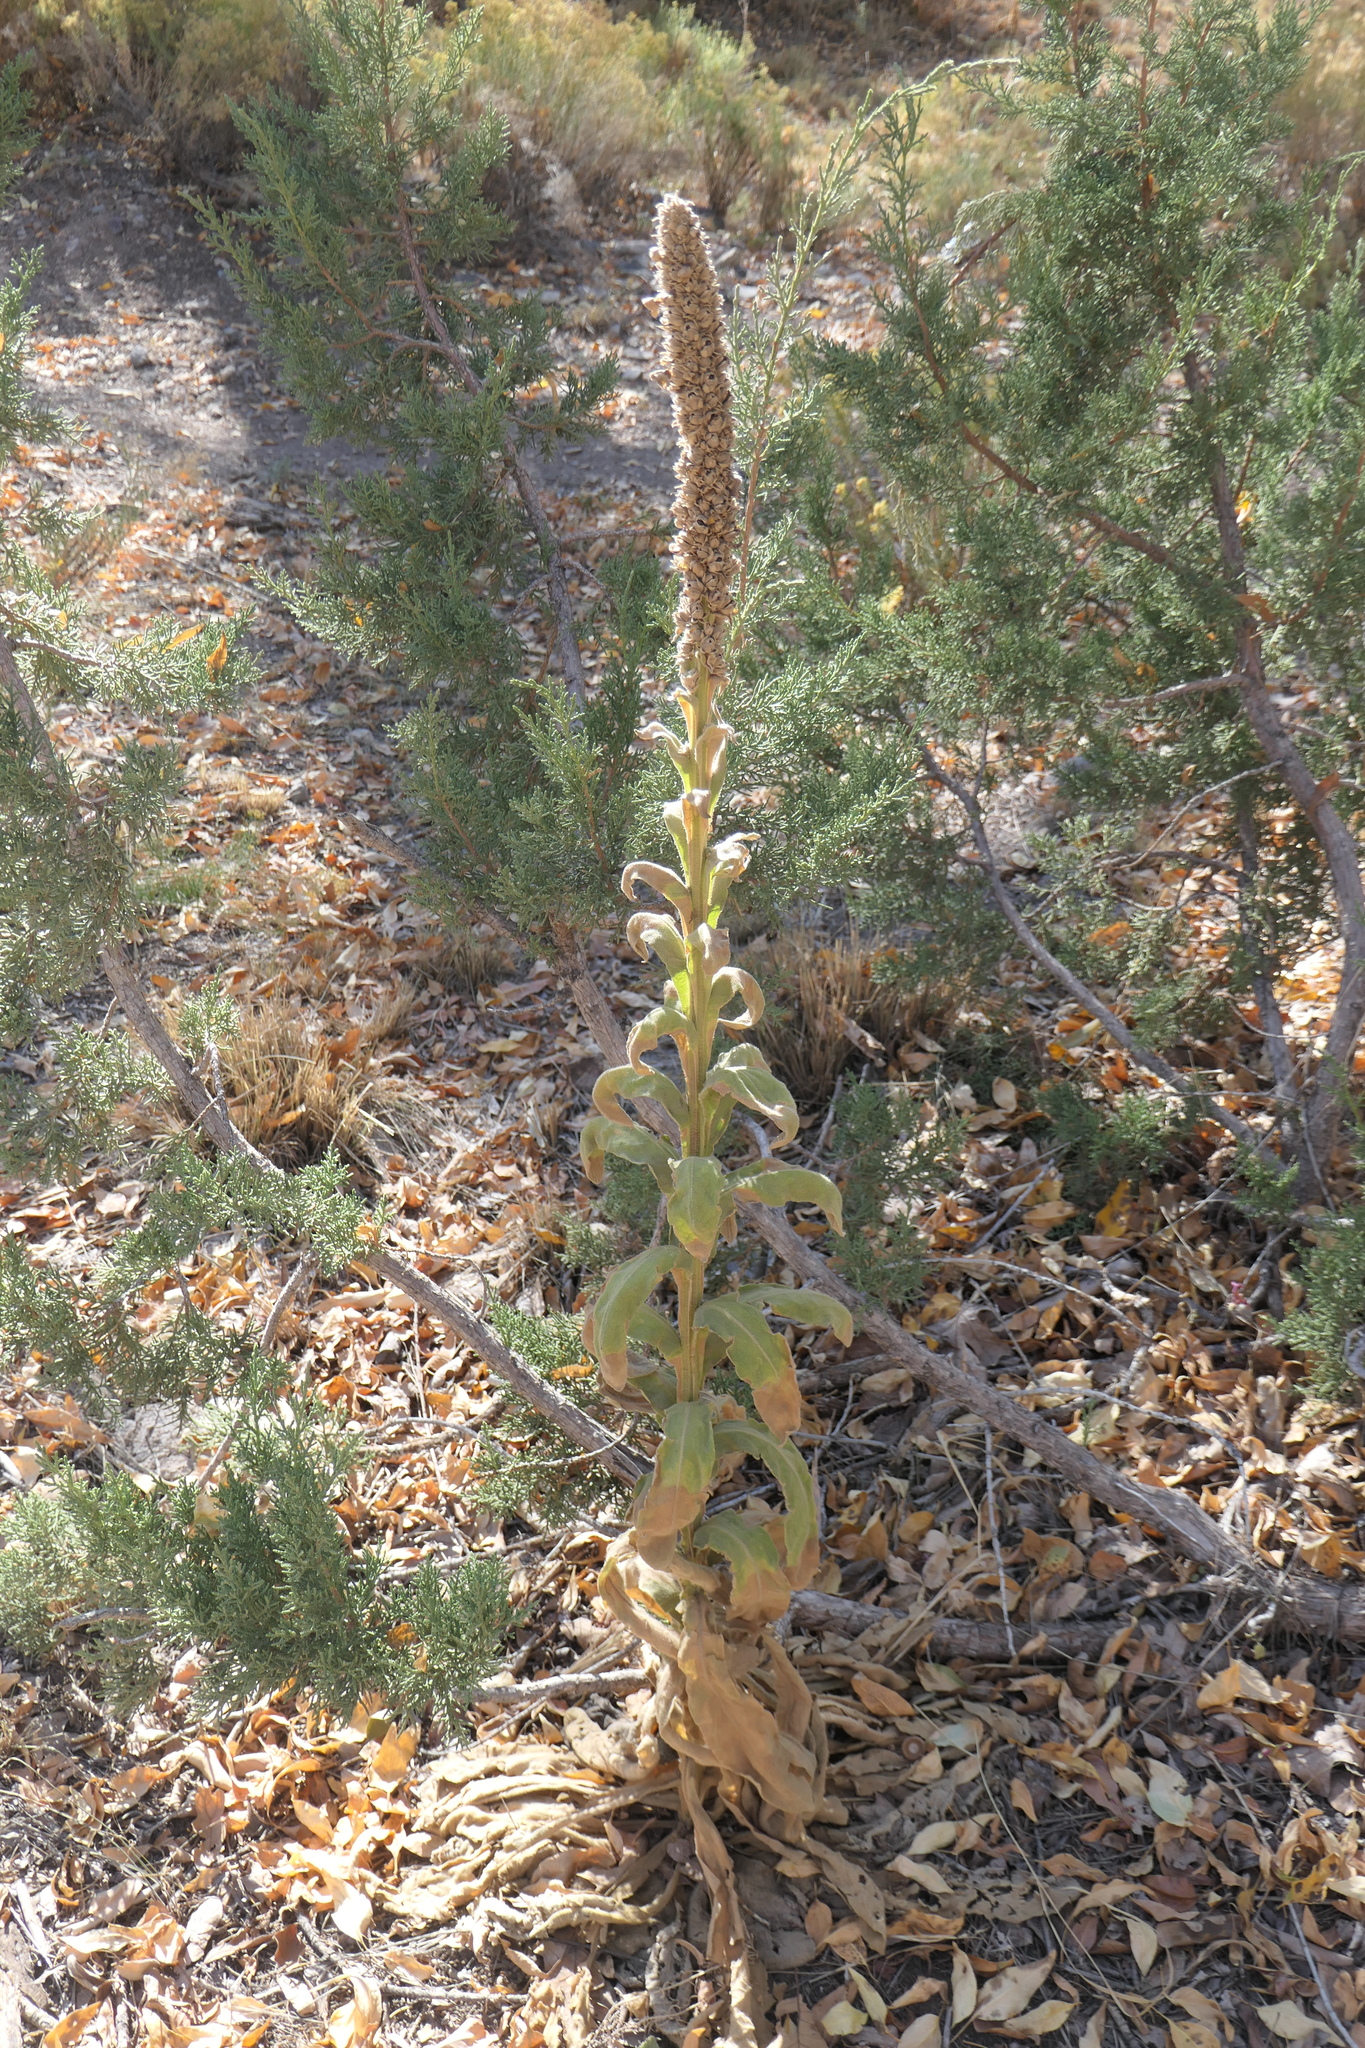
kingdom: Plantae
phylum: Tracheophyta
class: Magnoliopsida
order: Lamiales
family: Scrophulariaceae
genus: Verbascum
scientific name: Verbascum thapsus
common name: Common mullein
